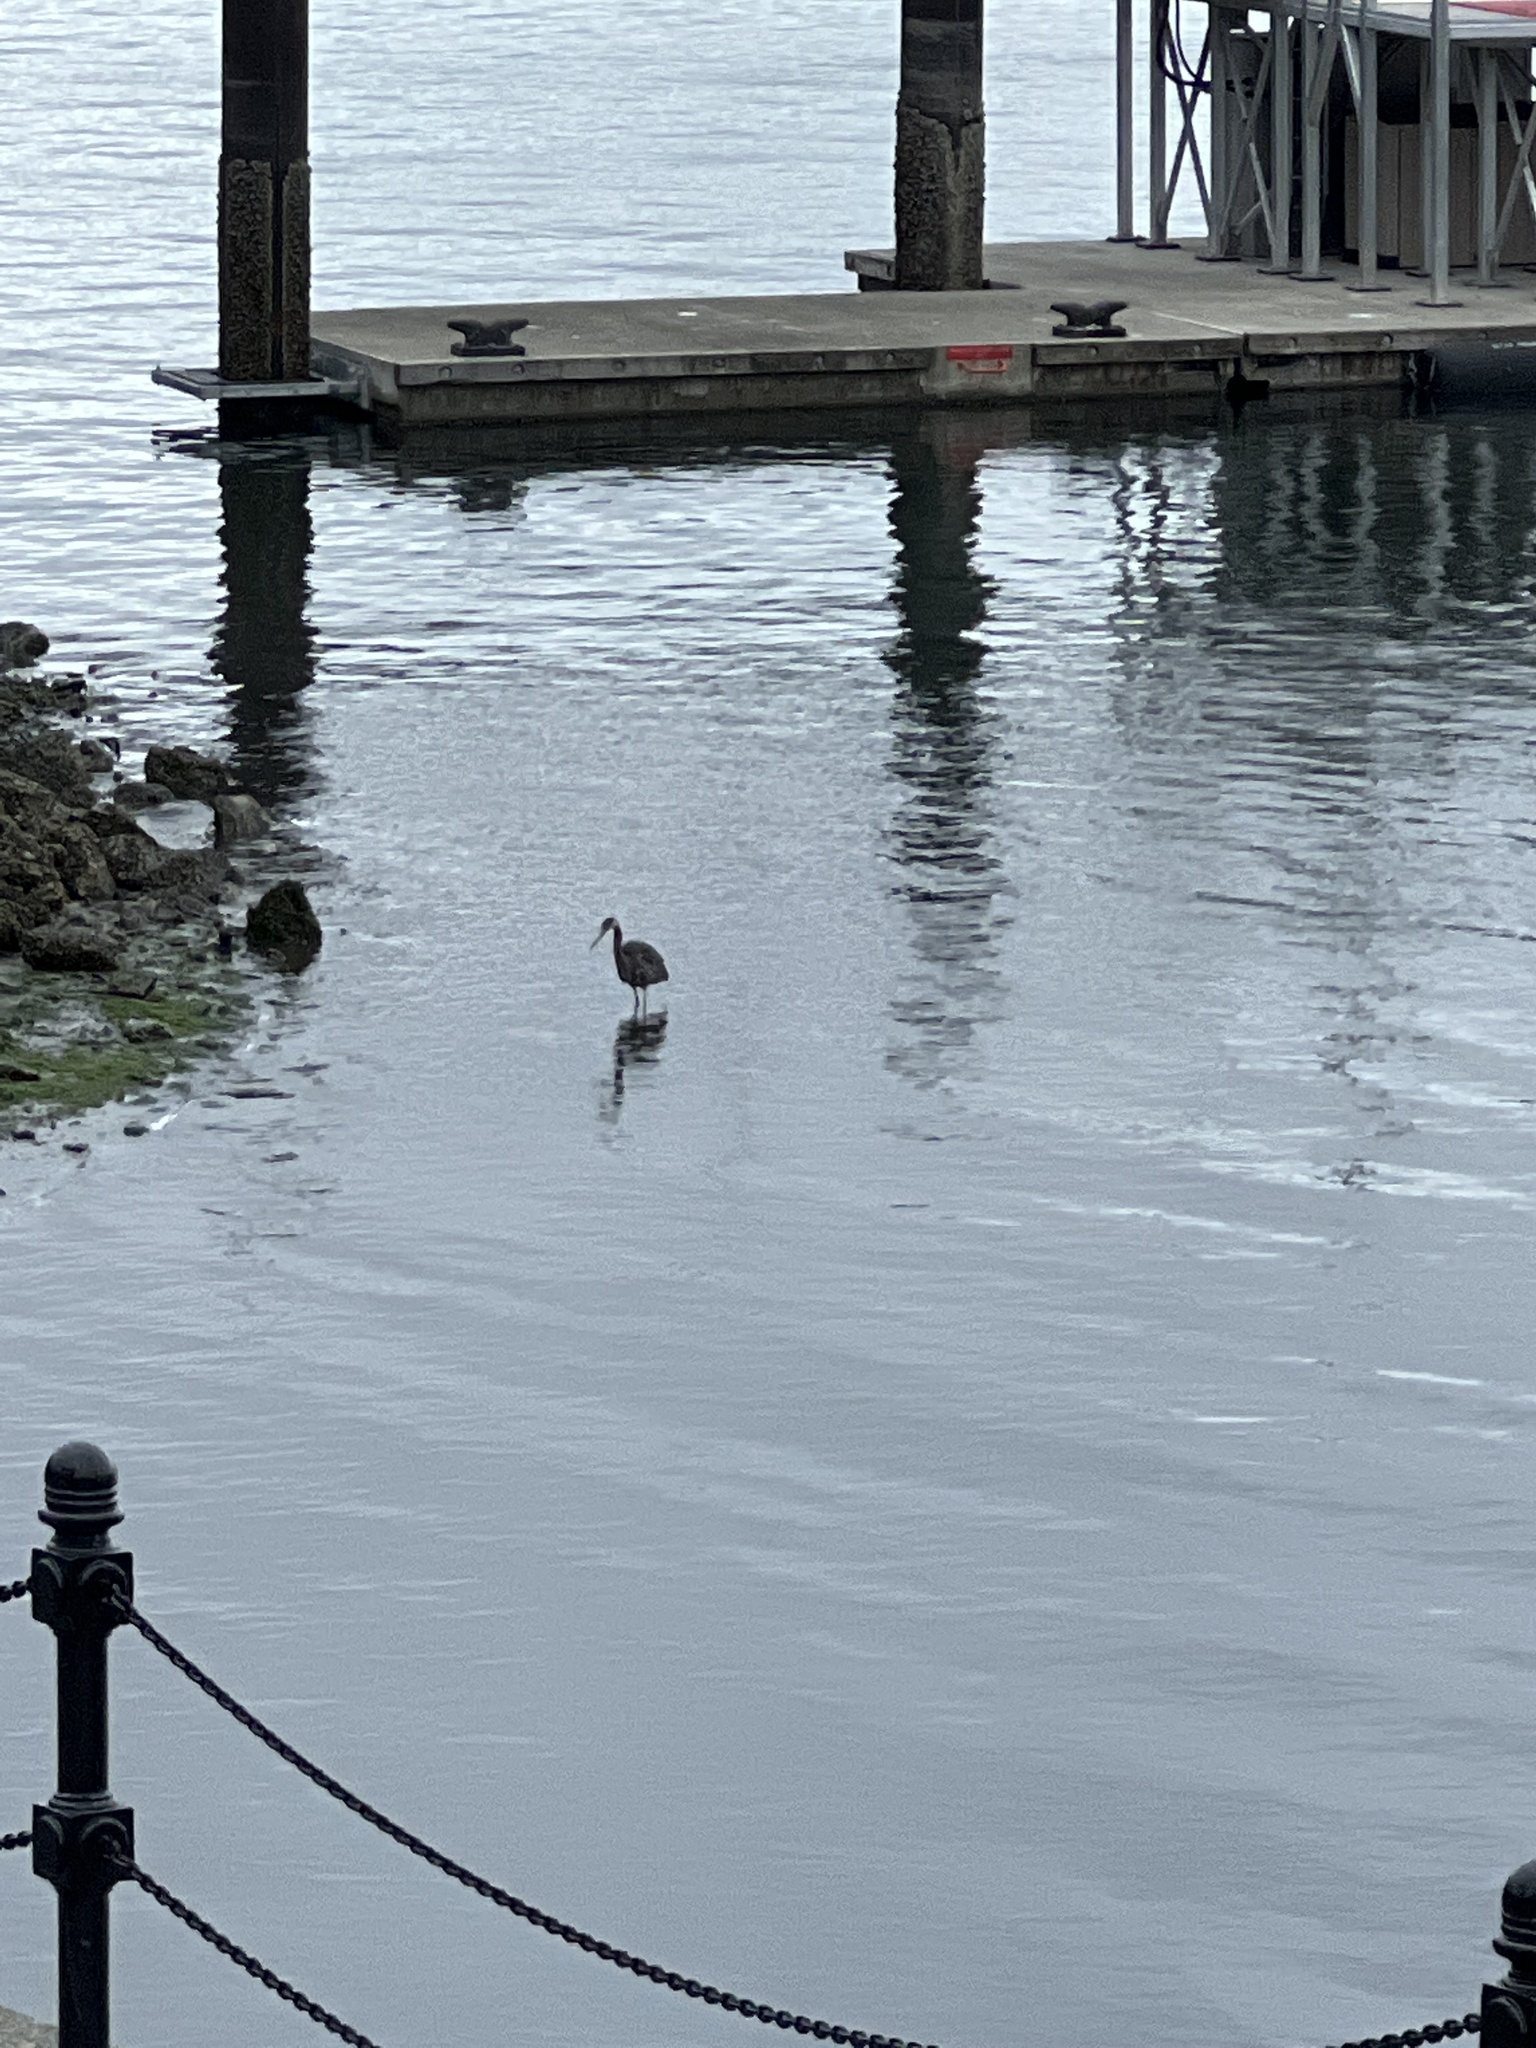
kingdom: Animalia
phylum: Chordata
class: Aves
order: Pelecaniformes
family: Ardeidae
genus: Ardea
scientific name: Ardea herodias
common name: Great blue heron
